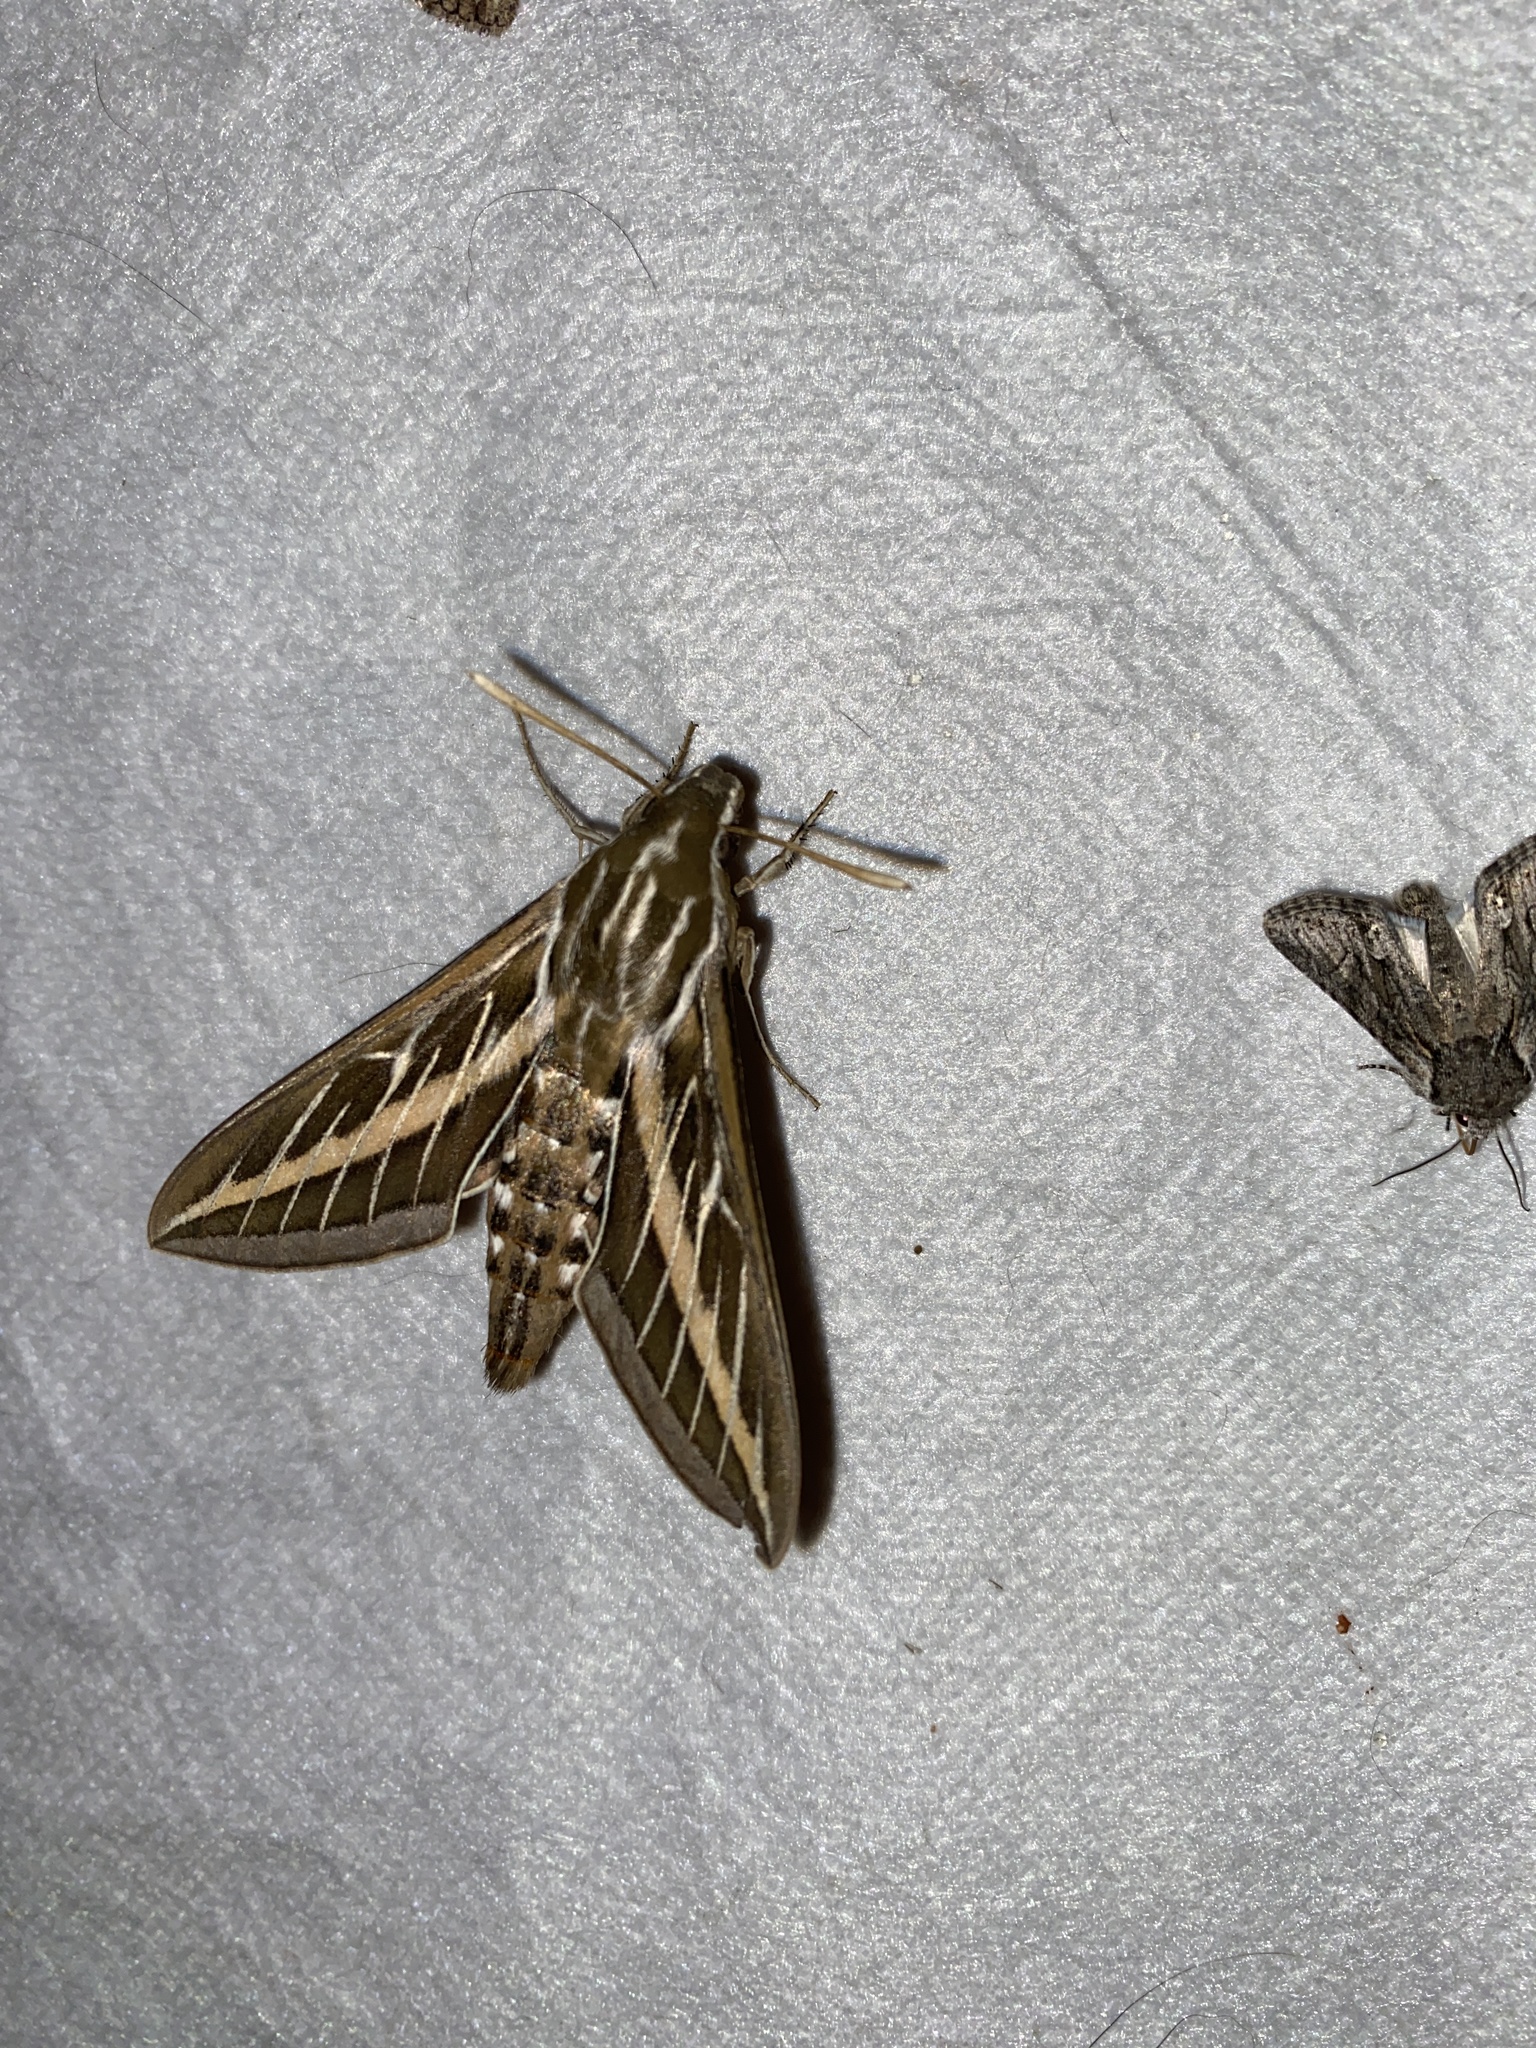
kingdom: Animalia
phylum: Arthropoda
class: Insecta
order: Lepidoptera
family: Sphingidae
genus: Hyles
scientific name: Hyles lineata
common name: White-lined sphinx
